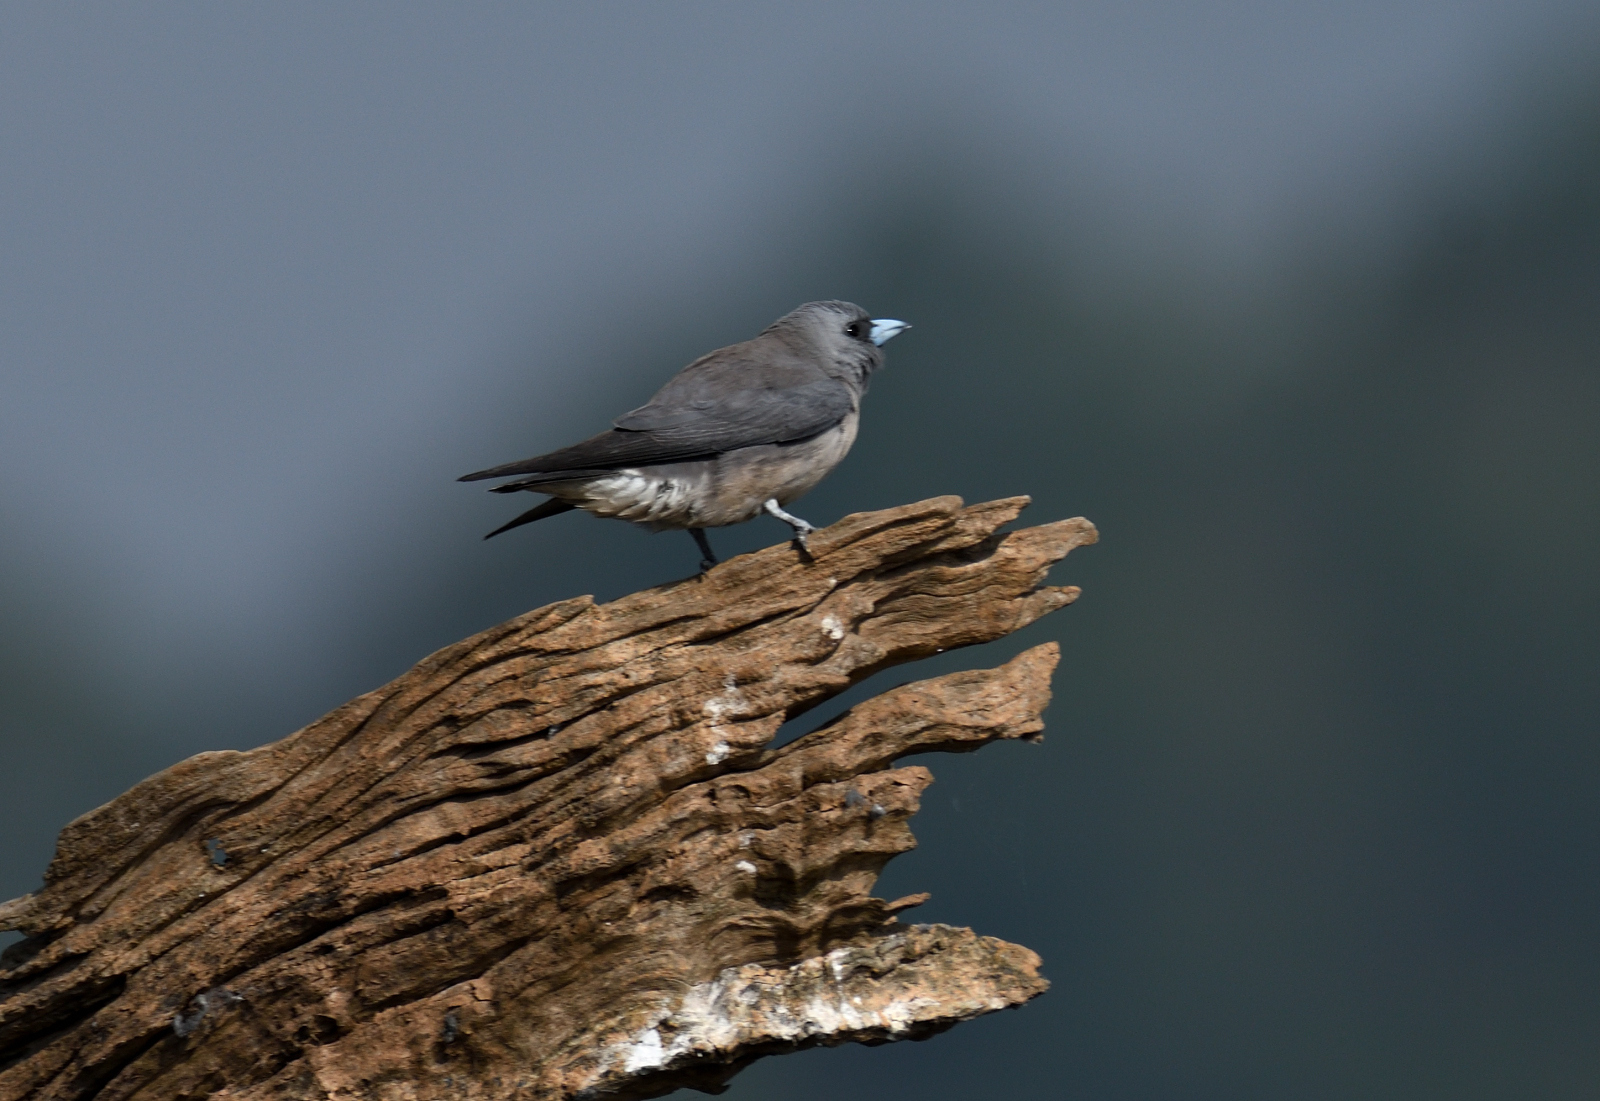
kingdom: Animalia
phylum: Chordata
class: Aves
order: Passeriformes
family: Artamidae
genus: Artamus
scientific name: Artamus fuscus
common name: Ashy woodswallow
